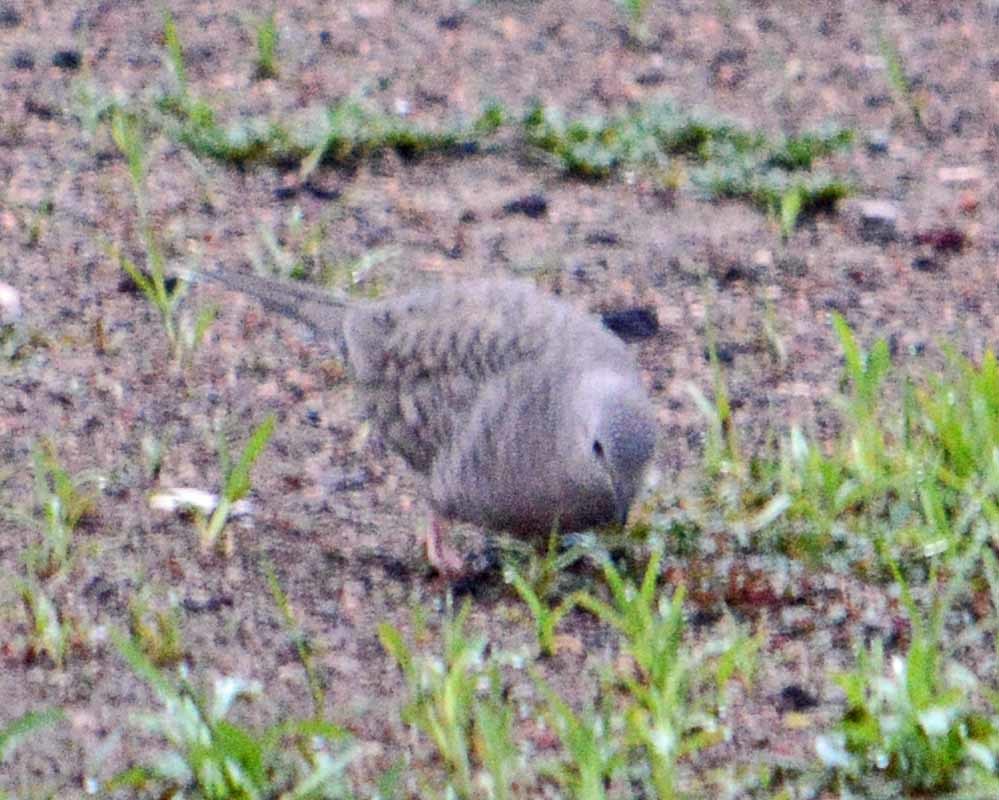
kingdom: Animalia
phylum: Chordata
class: Aves
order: Columbiformes
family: Columbidae
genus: Columbina
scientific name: Columbina inca
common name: Inca dove
